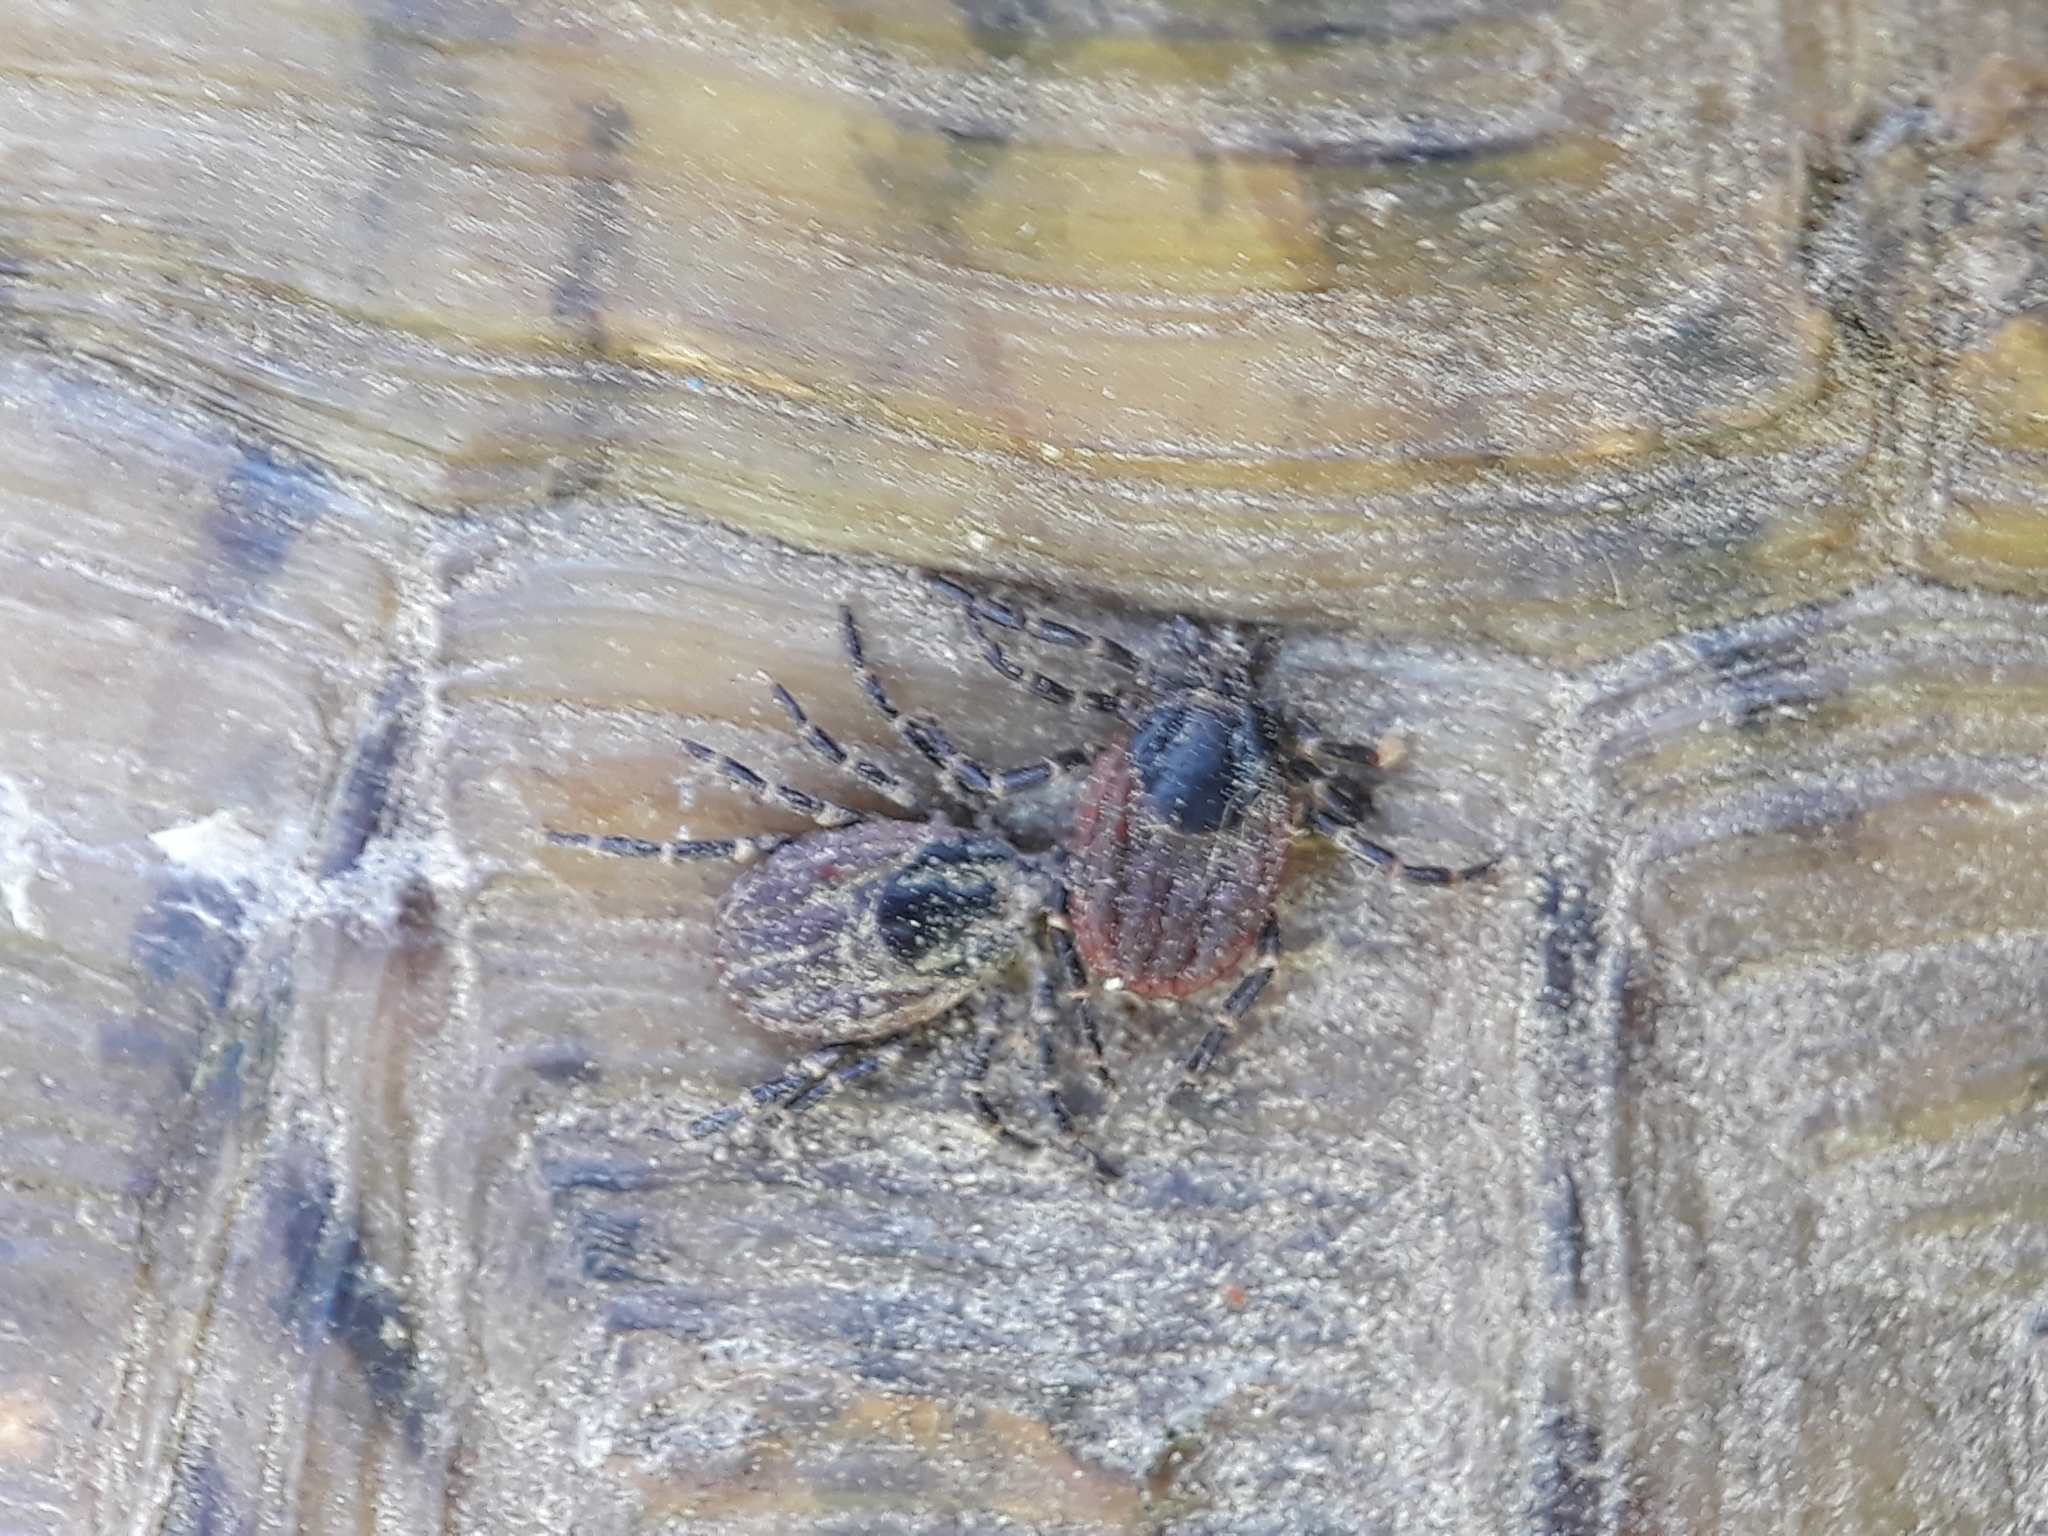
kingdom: Animalia
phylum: Arthropoda
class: Arachnida
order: Ixodida
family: Ixodidae
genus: Hyalomma
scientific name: Hyalomma aegyptium
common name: Tortoise tick
